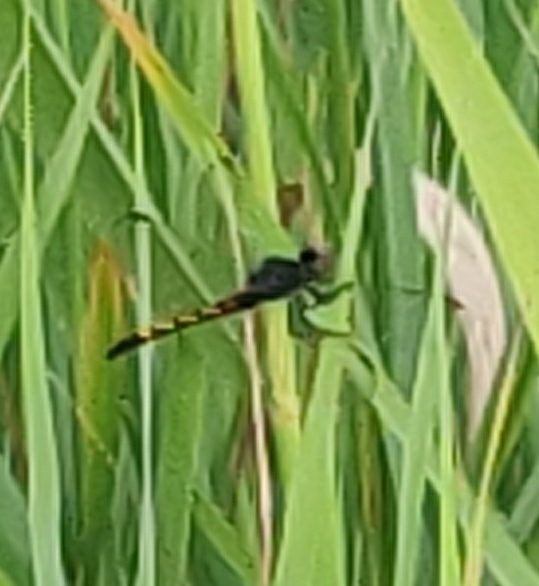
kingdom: Animalia
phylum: Arthropoda
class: Insecta
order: Odonata
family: Libellulidae
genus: Erythrodiplax
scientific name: Erythrodiplax berenice
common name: Seaside dragonlet
